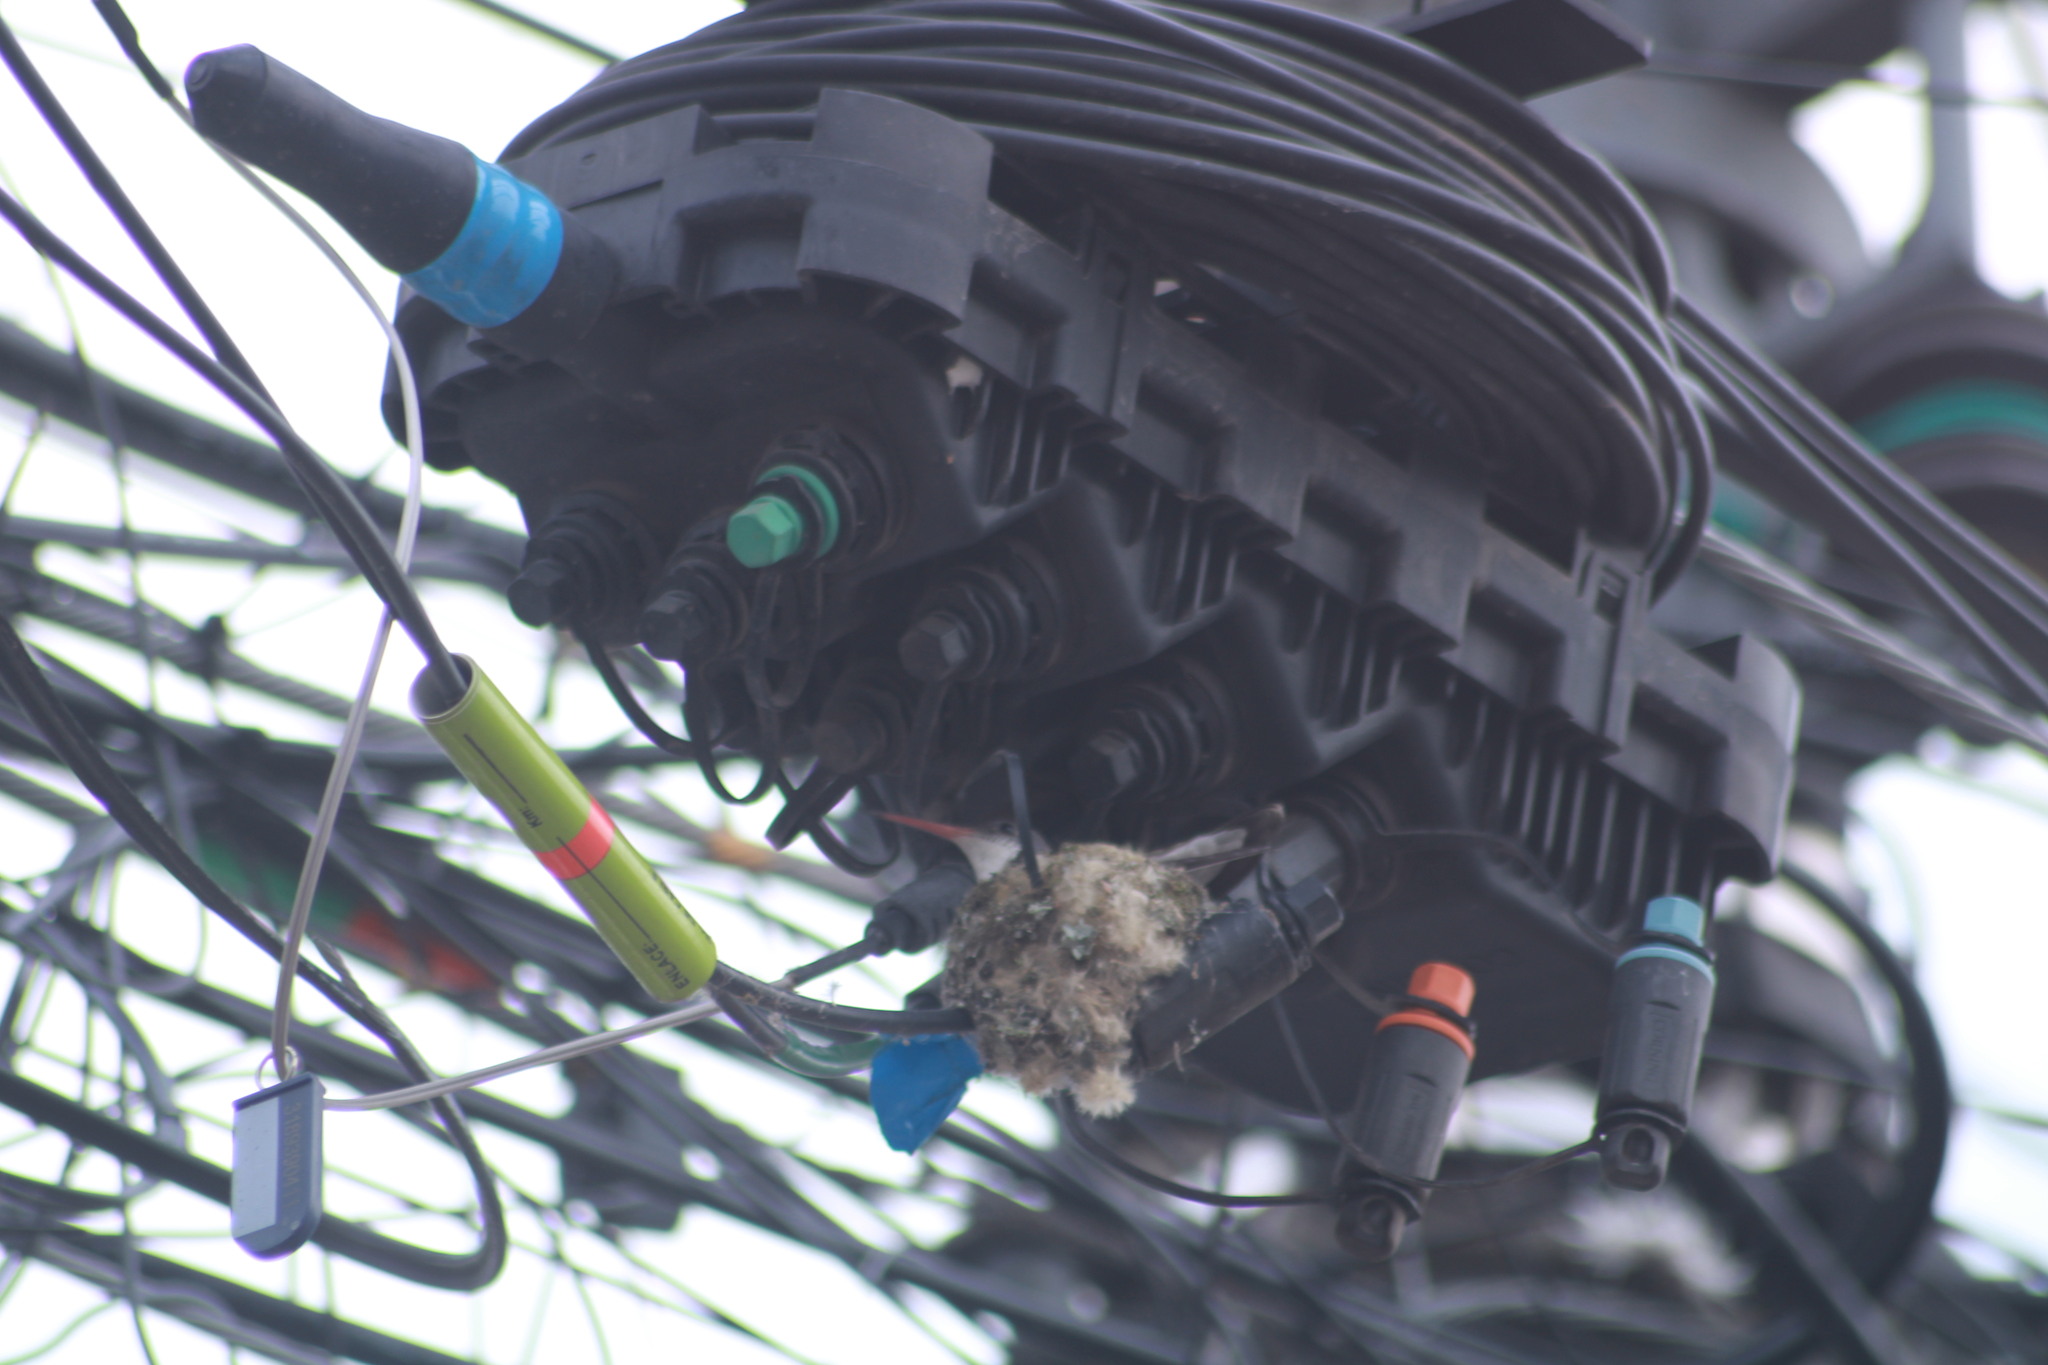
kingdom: Animalia
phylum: Chordata
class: Aves
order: Apodiformes
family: Trochilidae
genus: Leucolia
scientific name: Leucolia violiceps
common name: Violet-crowned hummingbird
